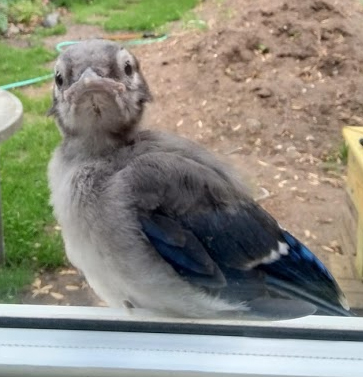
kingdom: Animalia
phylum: Chordata
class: Aves
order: Passeriformes
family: Corvidae
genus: Cyanocitta
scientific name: Cyanocitta cristata
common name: Blue jay
